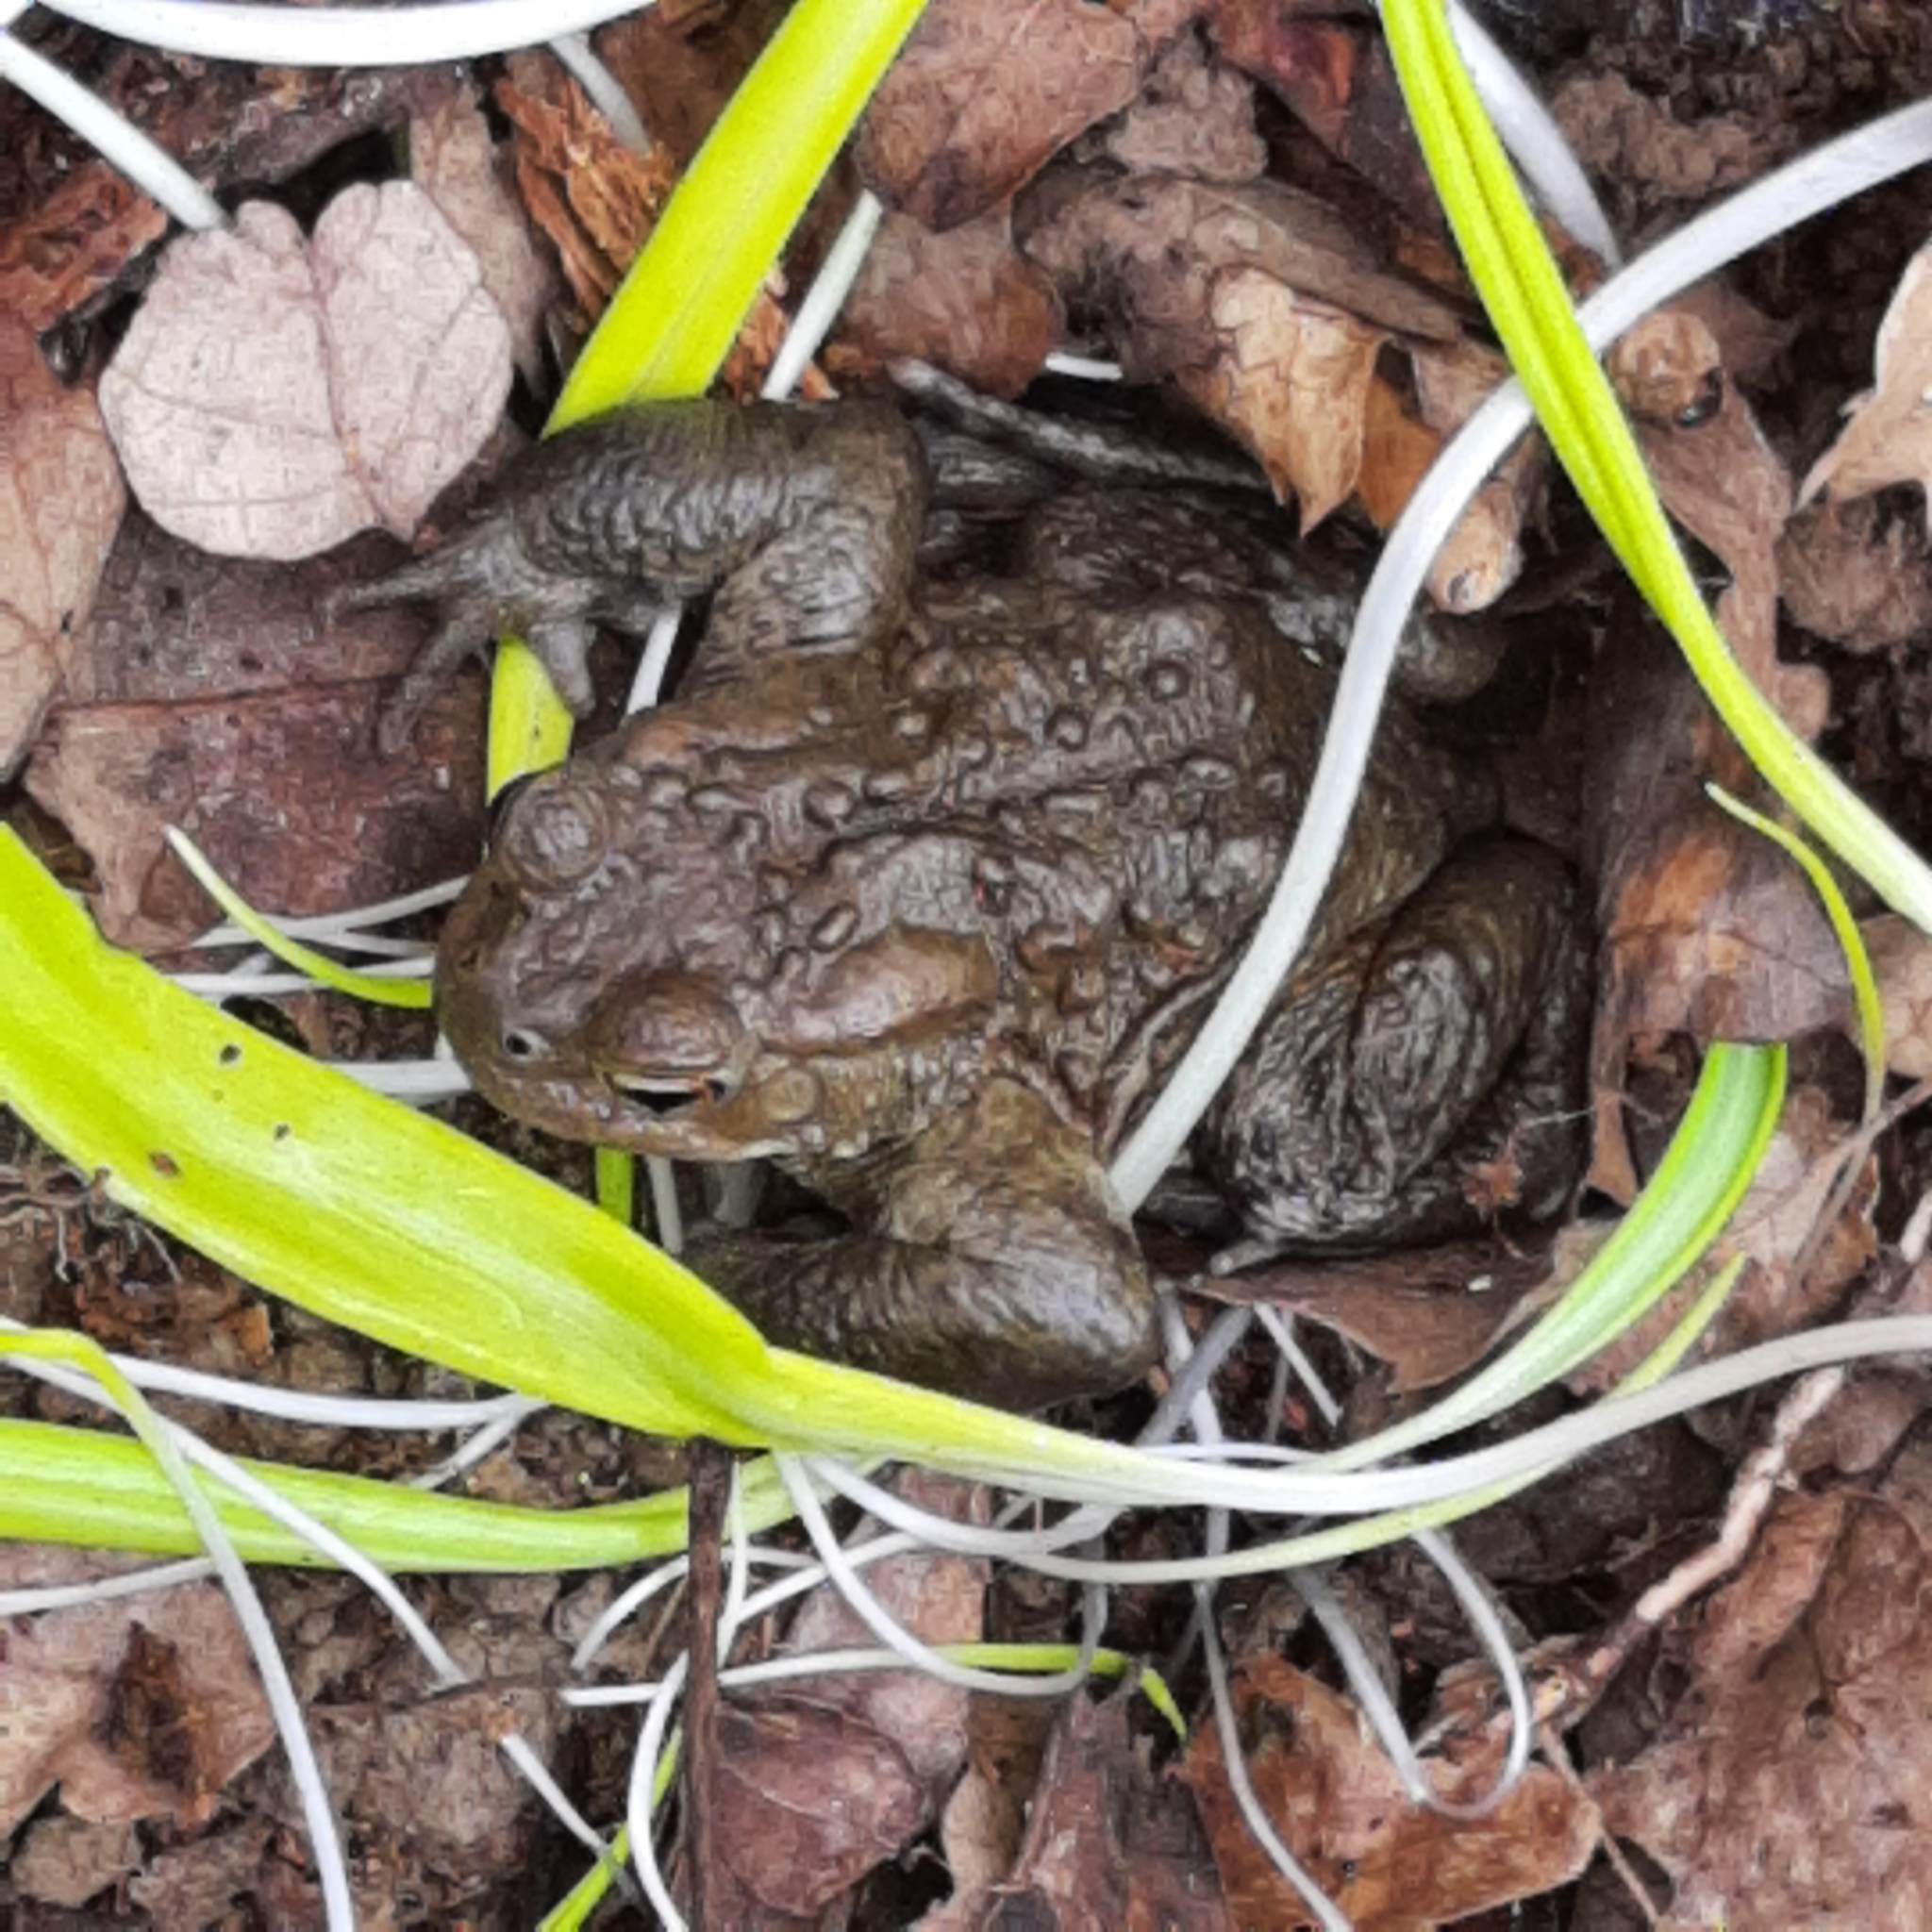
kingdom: Animalia
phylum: Chordata
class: Amphibia
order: Anura
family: Bufonidae
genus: Bufo
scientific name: Bufo bufo
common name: Common toad
